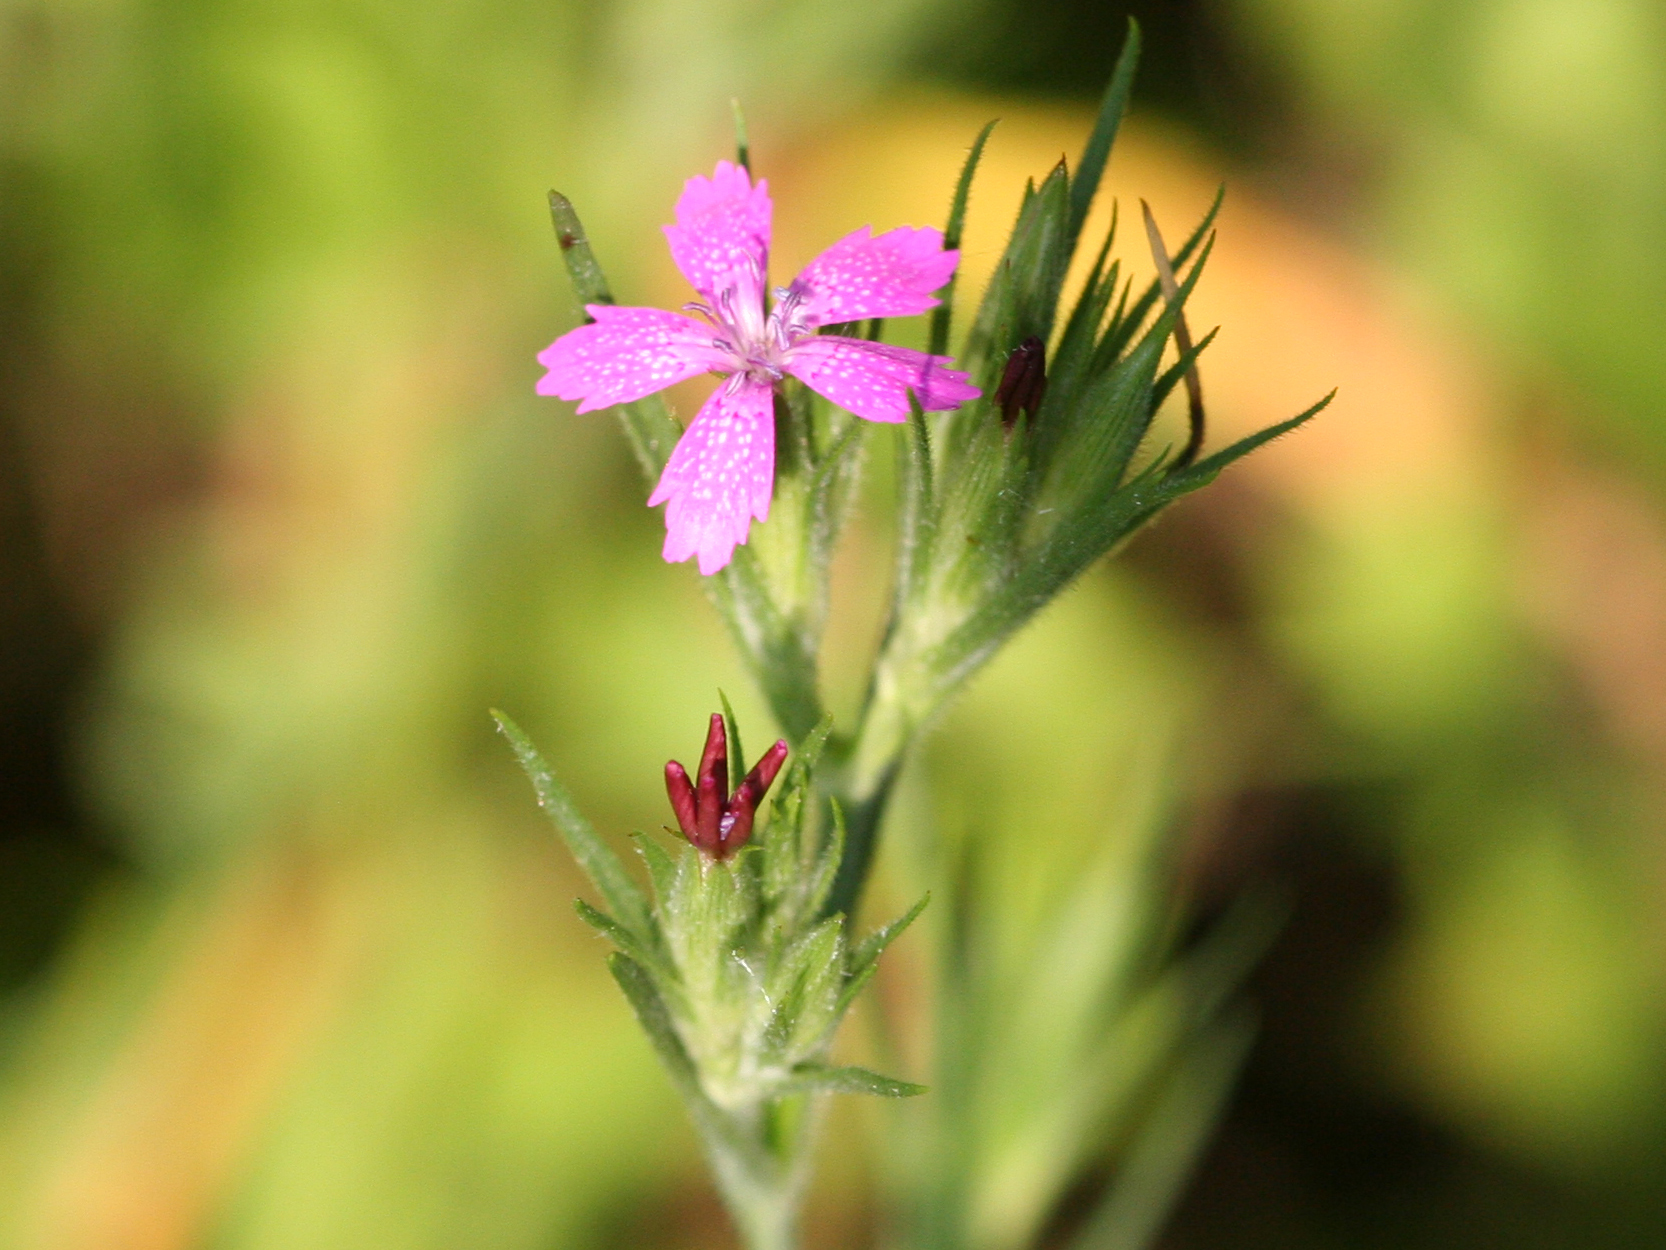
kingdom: Plantae
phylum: Tracheophyta
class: Magnoliopsida
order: Caryophyllales
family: Caryophyllaceae
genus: Dianthus
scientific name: Dianthus armeria
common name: Deptford pink
